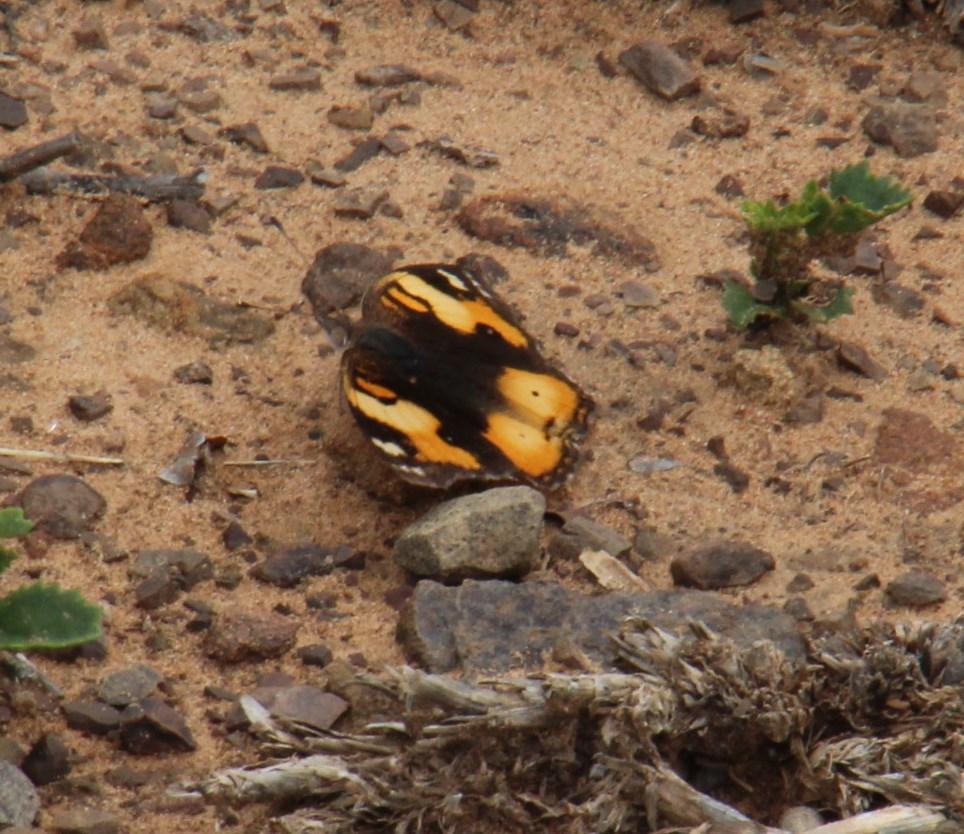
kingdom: Animalia
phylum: Arthropoda
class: Insecta
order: Lepidoptera
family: Nymphalidae
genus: Junonia
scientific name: Junonia hierta
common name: Yellow pansy
